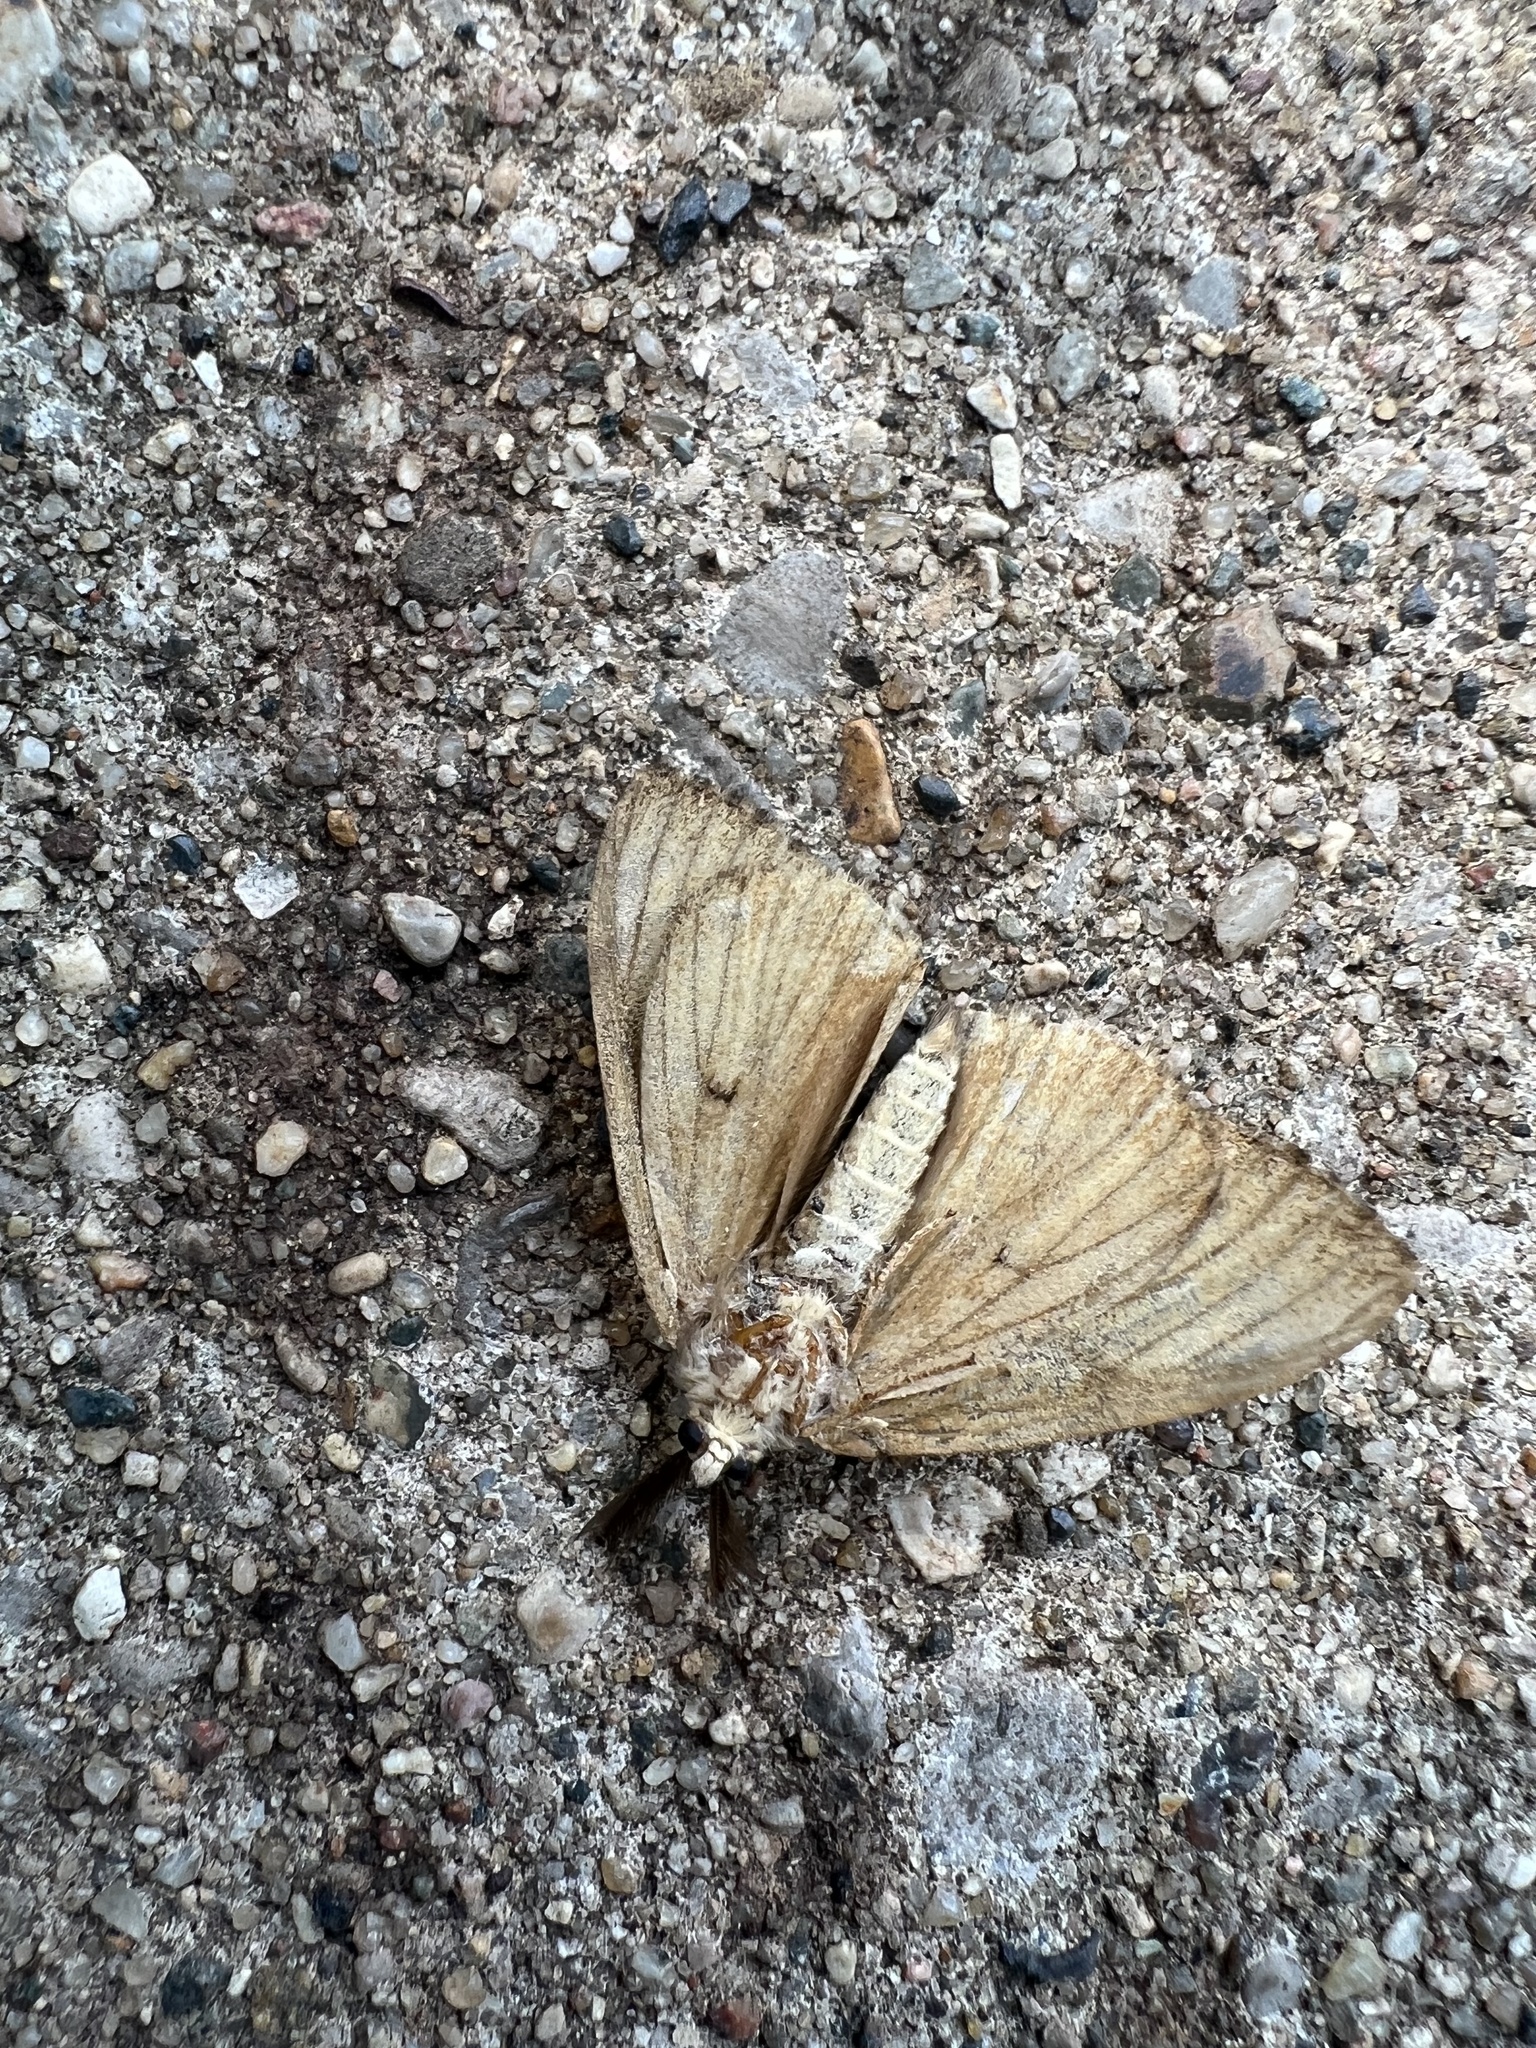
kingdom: Animalia
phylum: Arthropoda
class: Insecta
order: Lepidoptera
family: Erebidae
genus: Lymantria
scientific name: Lymantria dispar
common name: Gypsy moth
